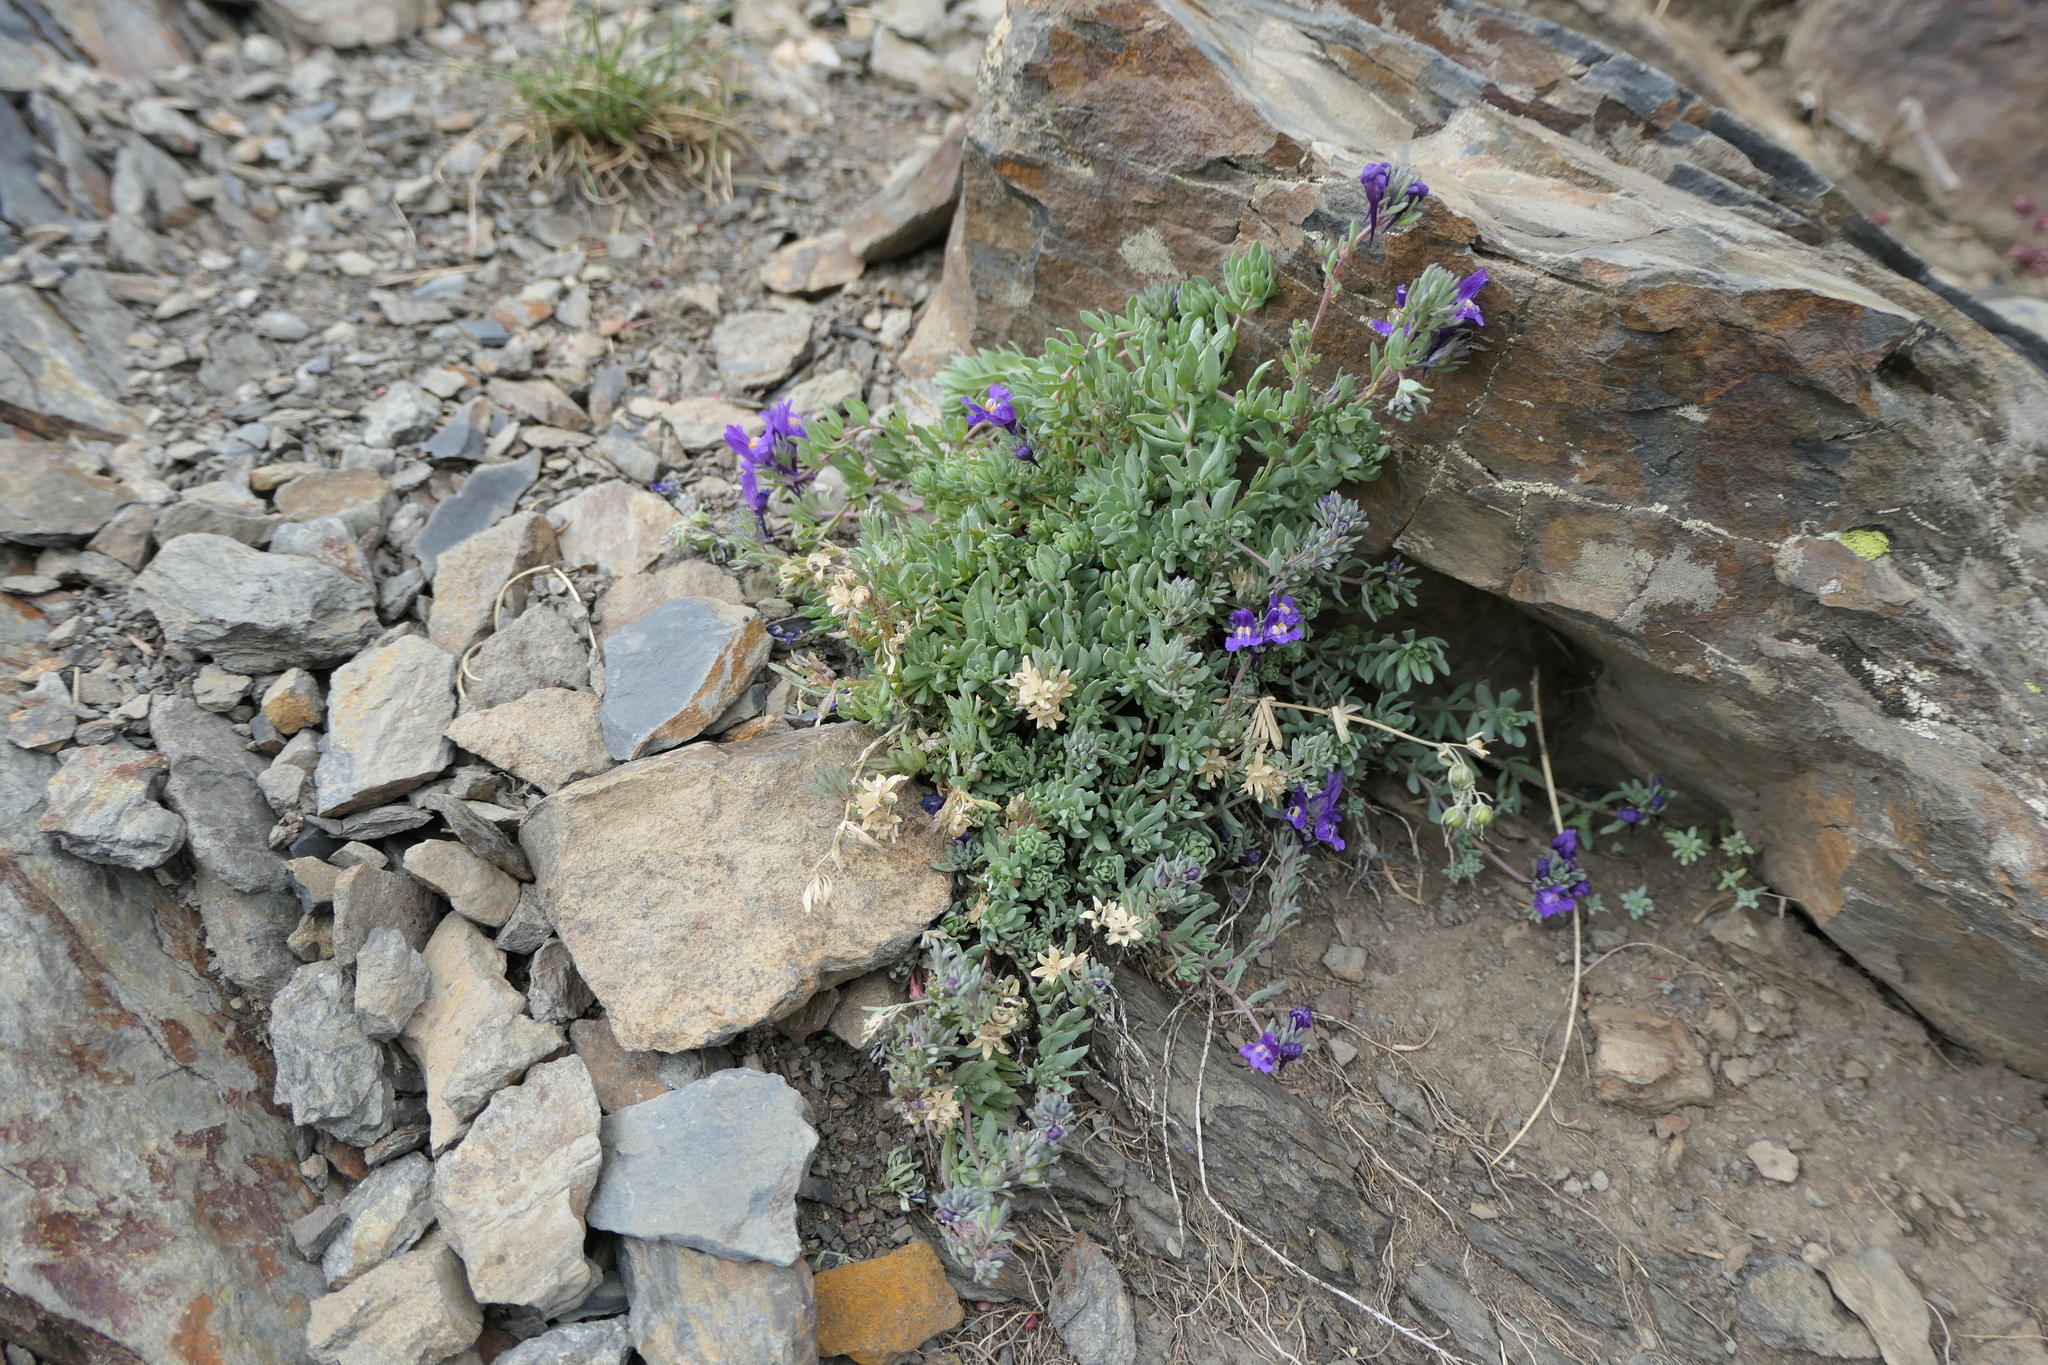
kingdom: Plantae
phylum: Tracheophyta
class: Magnoliopsida
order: Lamiales
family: Plantaginaceae
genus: Linaria
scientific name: Linaria alpina
